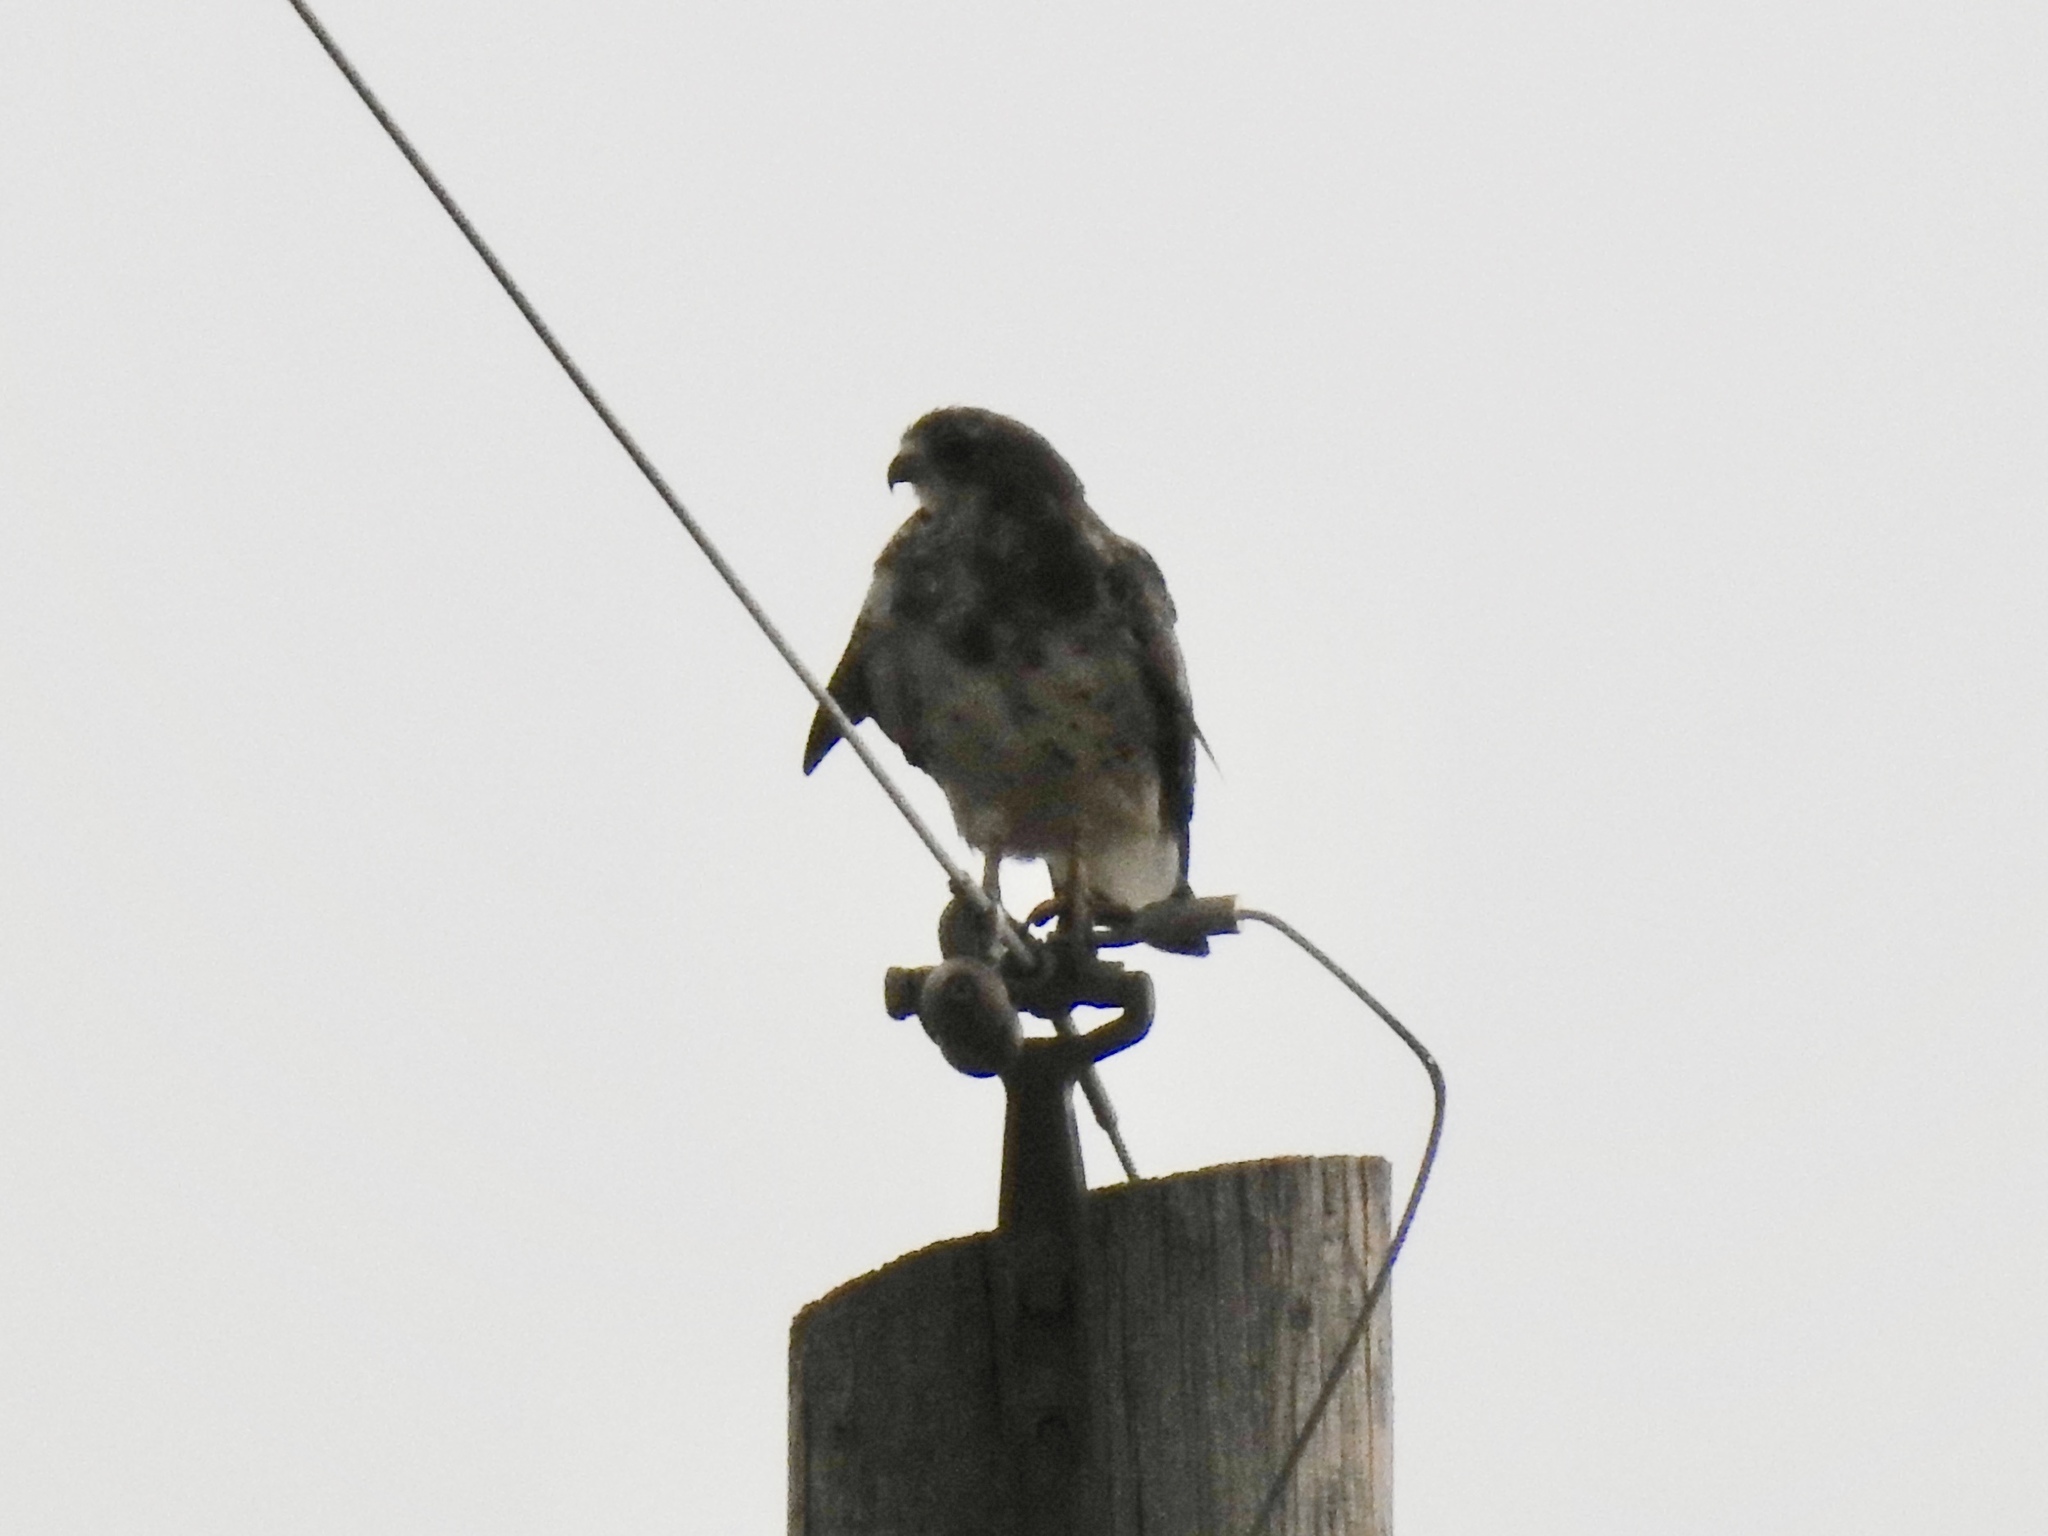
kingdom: Animalia
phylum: Chordata
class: Aves
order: Accipitriformes
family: Accipitridae
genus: Buteo
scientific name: Buteo swainsoni
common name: Swainson's hawk
